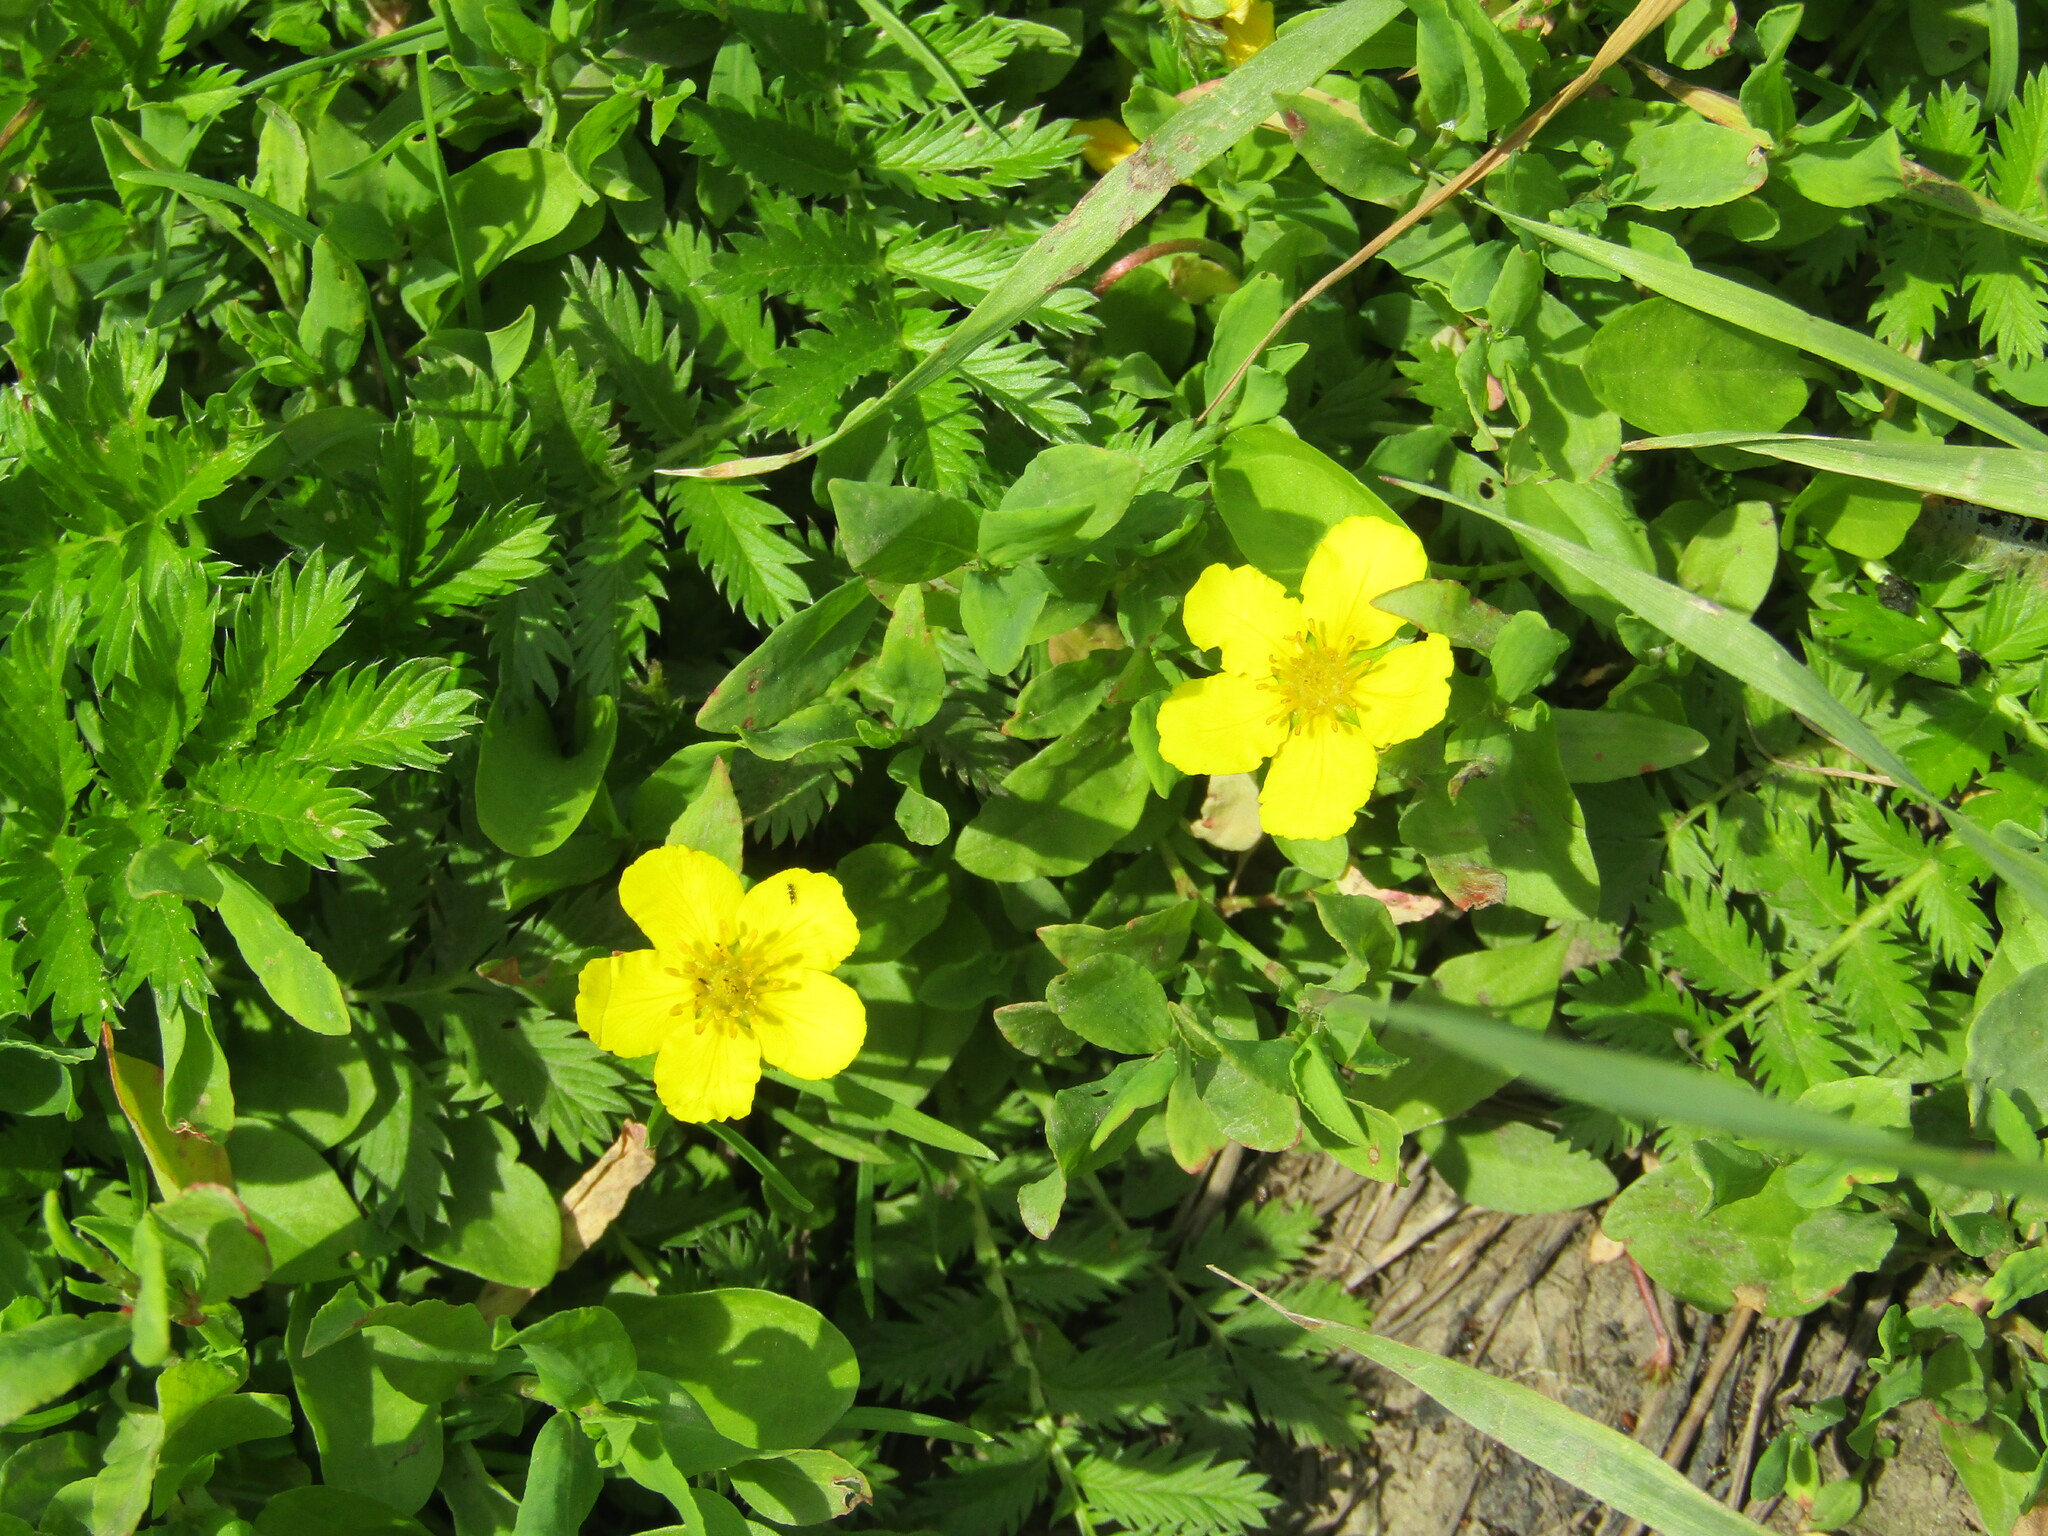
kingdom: Plantae
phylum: Tracheophyta
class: Magnoliopsida
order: Rosales
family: Rosaceae
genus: Argentina
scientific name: Argentina anserina
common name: Common silverweed
